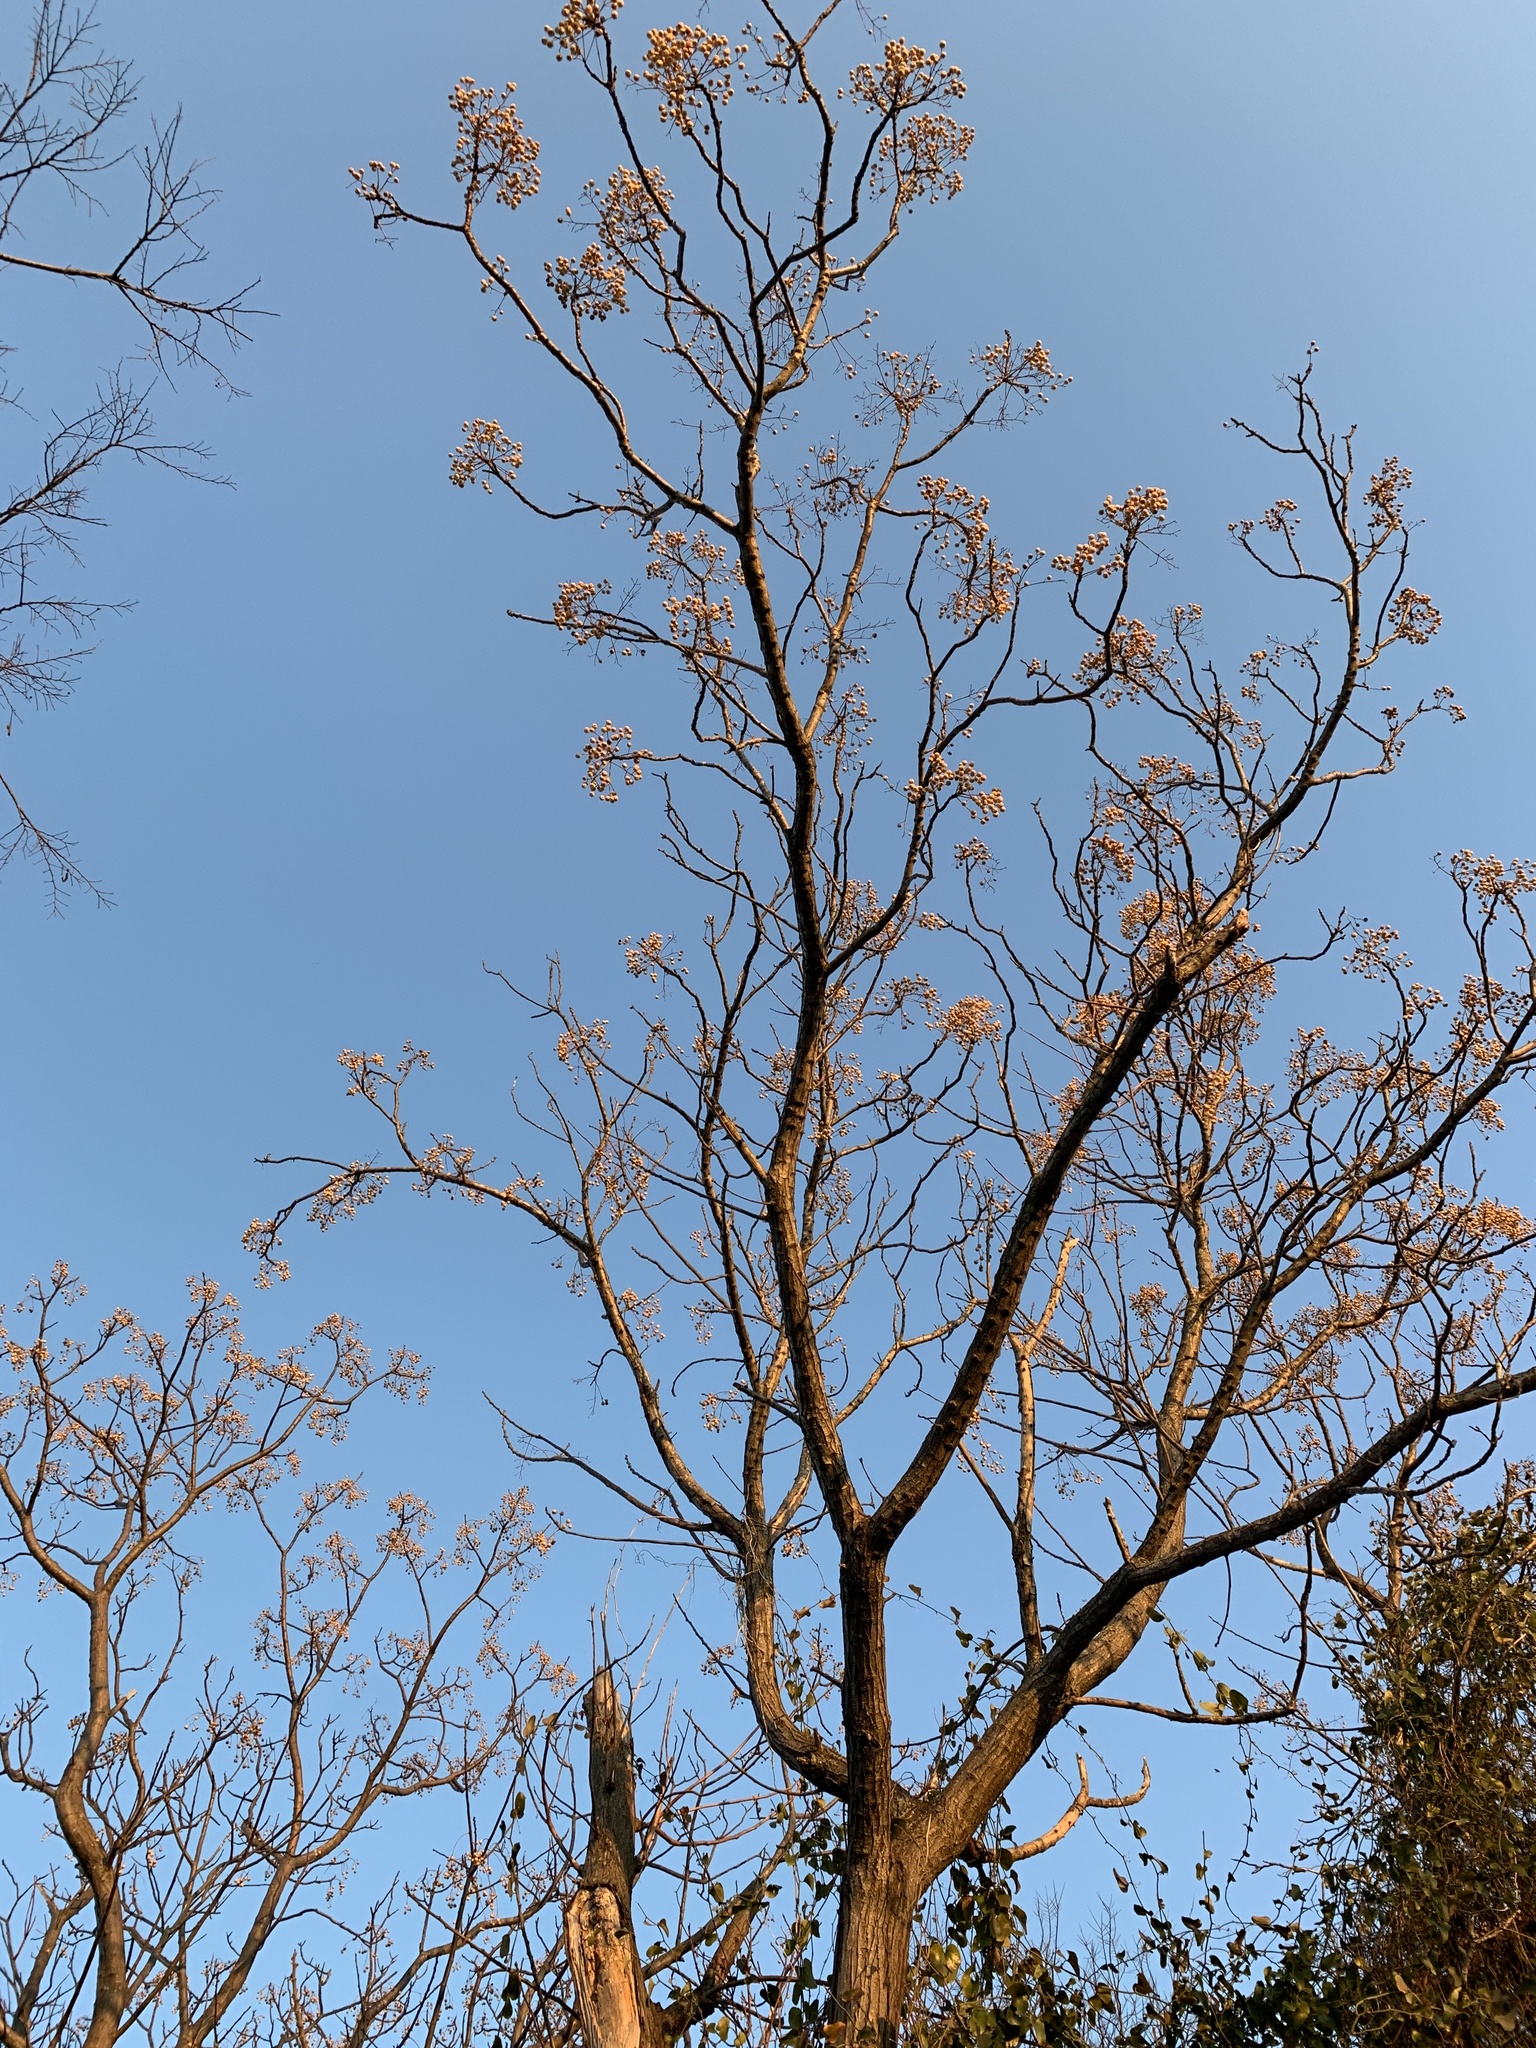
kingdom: Plantae
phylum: Tracheophyta
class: Magnoliopsida
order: Sapindales
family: Meliaceae
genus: Melia
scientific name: Melia azedarach
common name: Chinaberrytree
